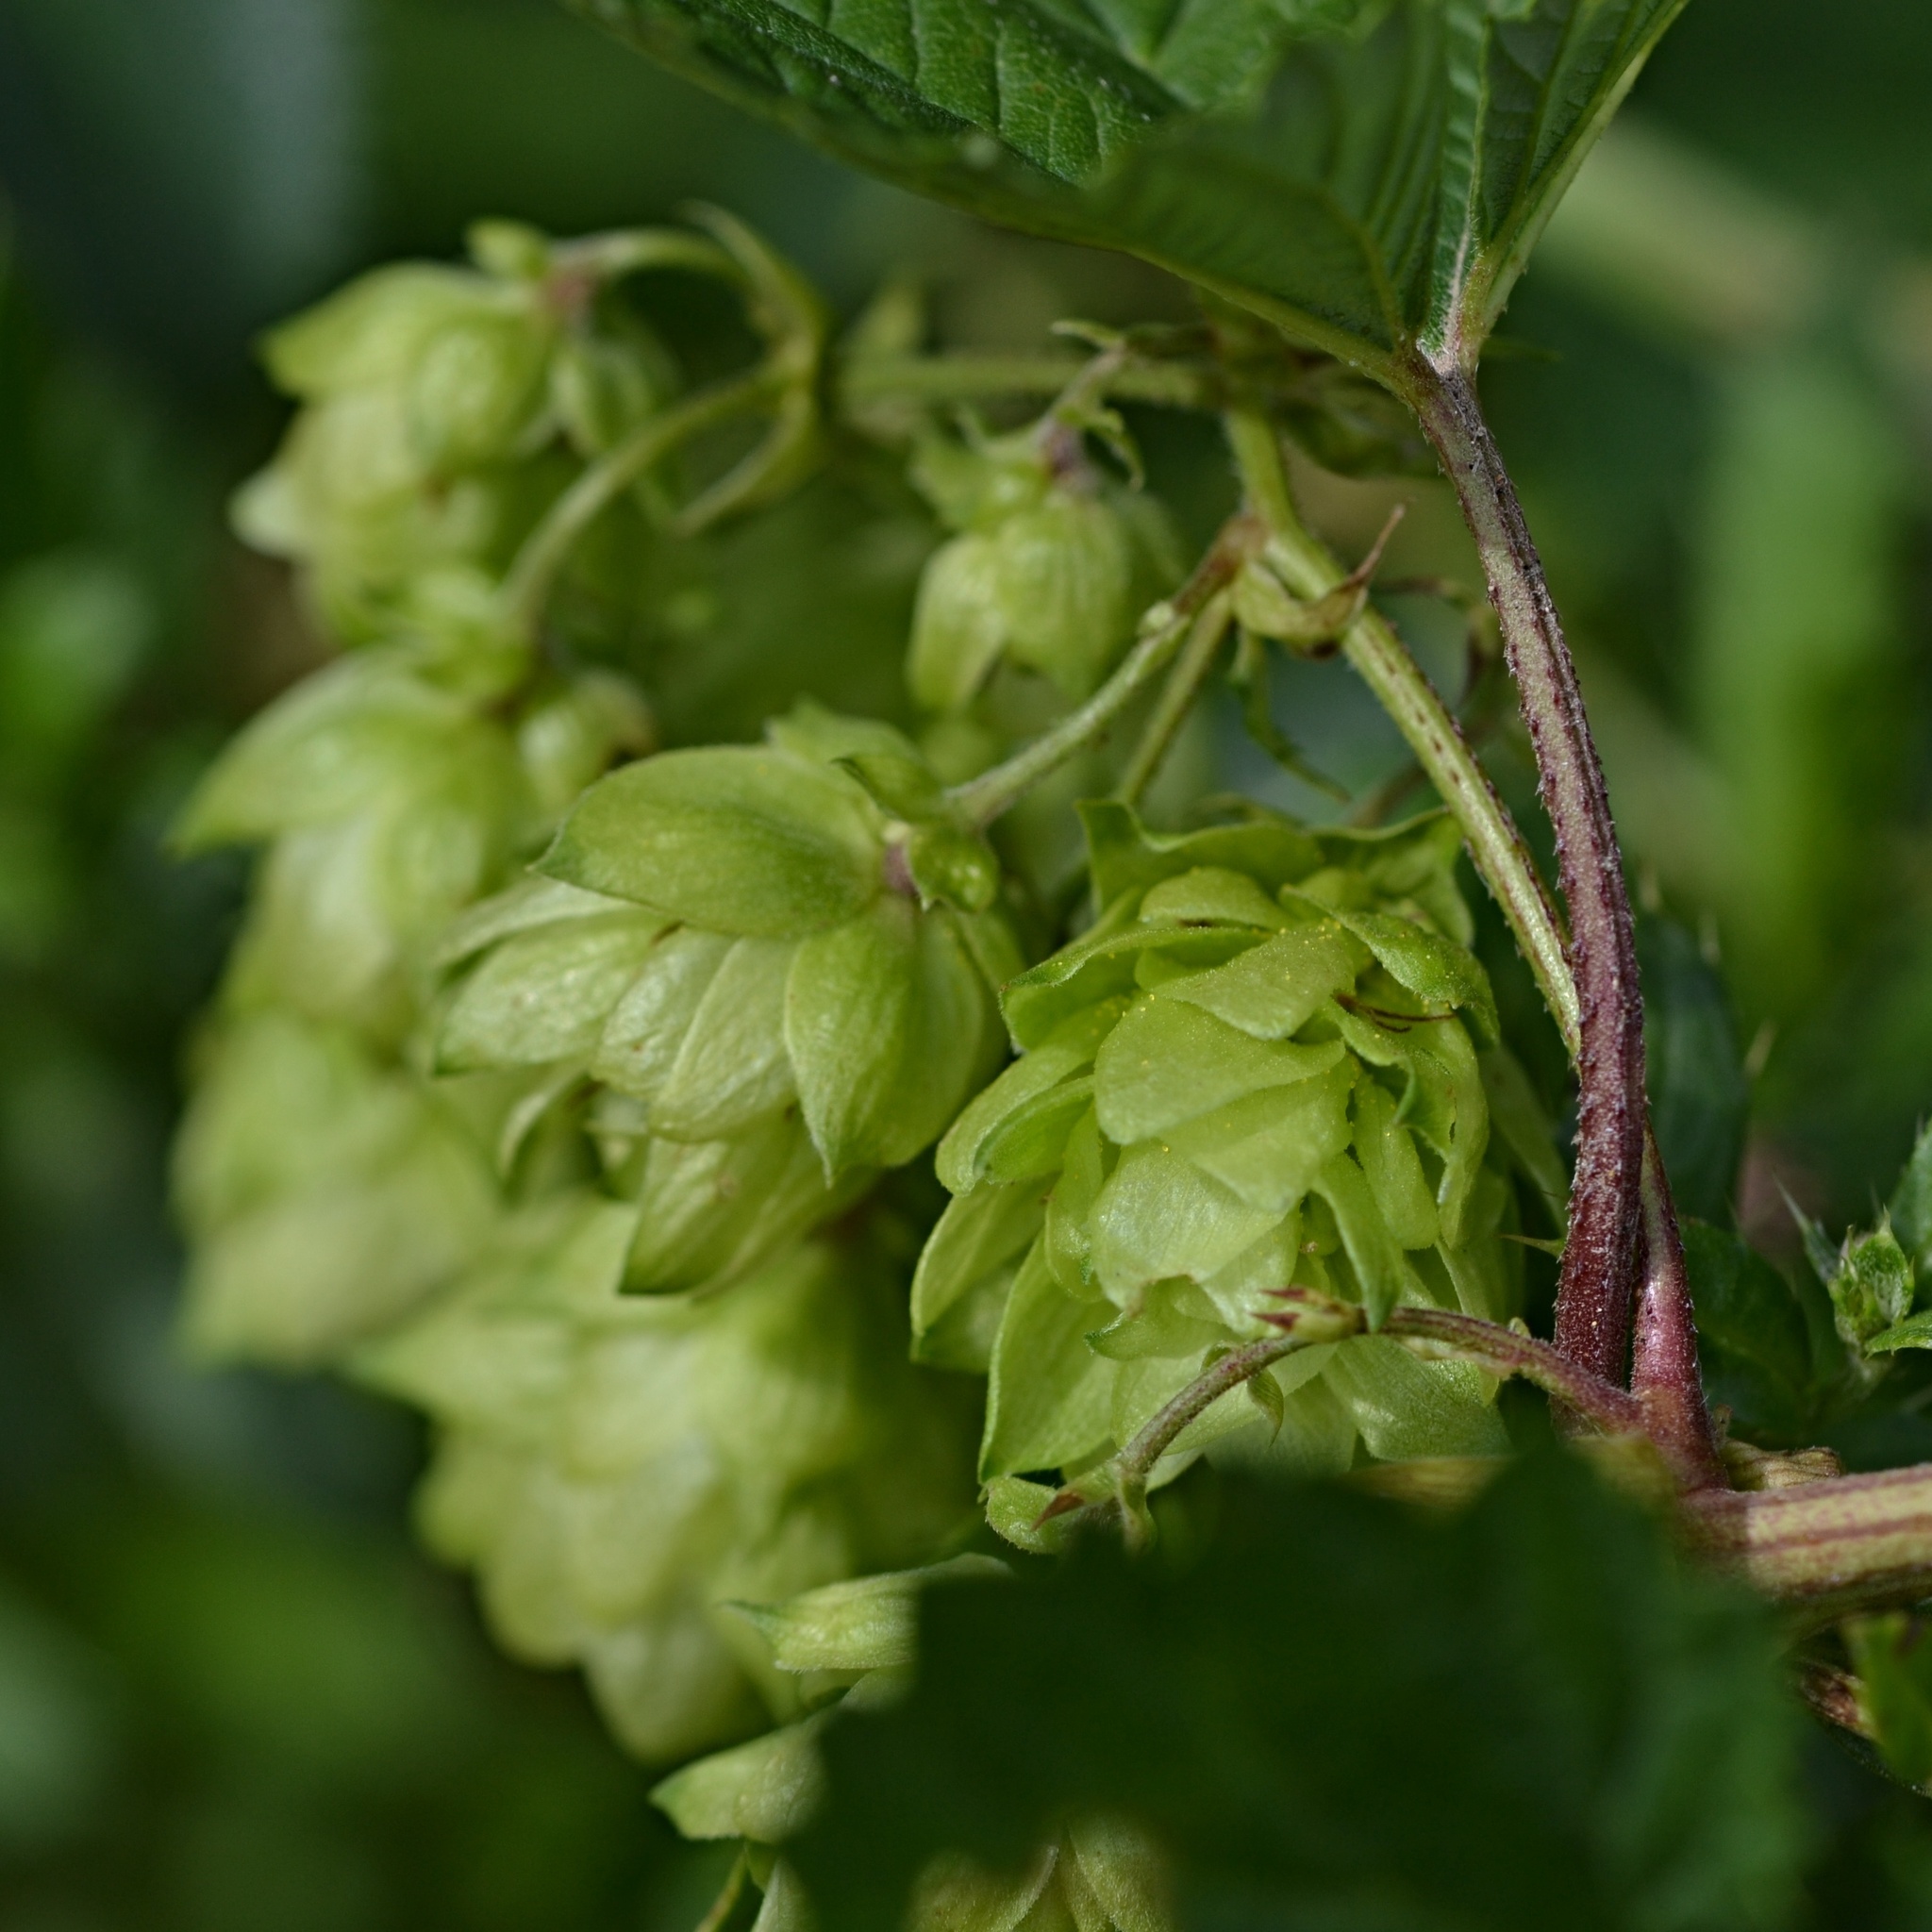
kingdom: Plantae
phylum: Tracheophyta
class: Magnoliopsida
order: Rosales
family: Cannabaceae
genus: Humulus
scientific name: Humulus lupulus
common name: Hop
